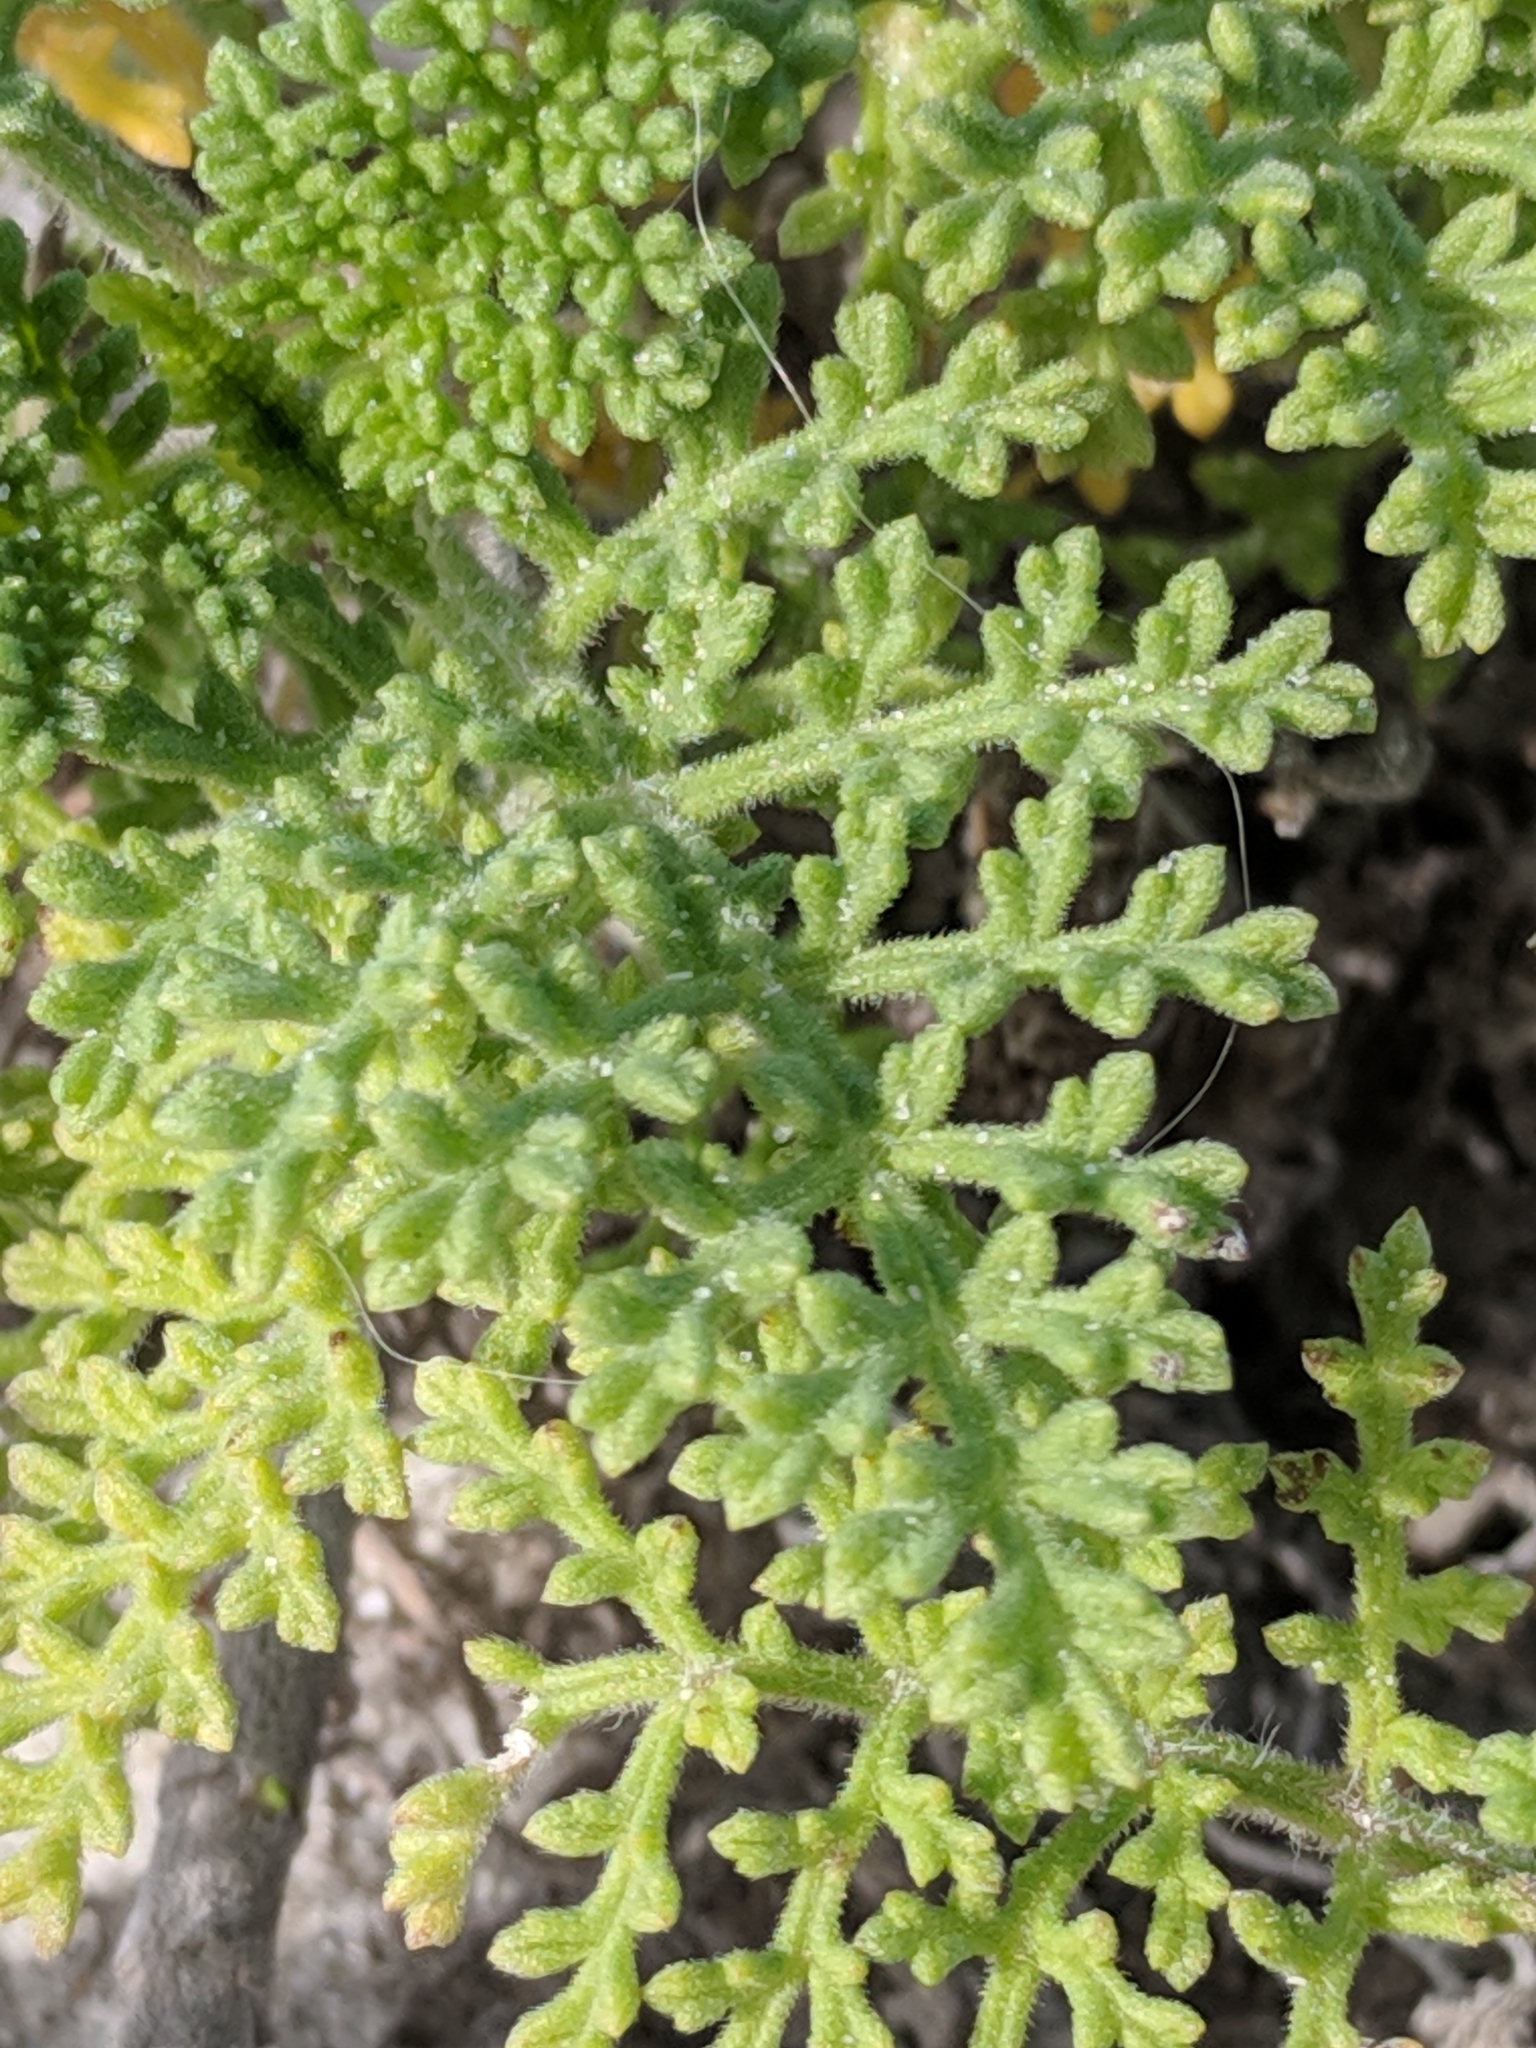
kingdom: Plantae
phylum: Tracheophyta
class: Magnoliopsida
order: Asterales
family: Asteraceae
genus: Ambrosia
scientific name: Ambrosia hispida
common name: Coastal ragweed
